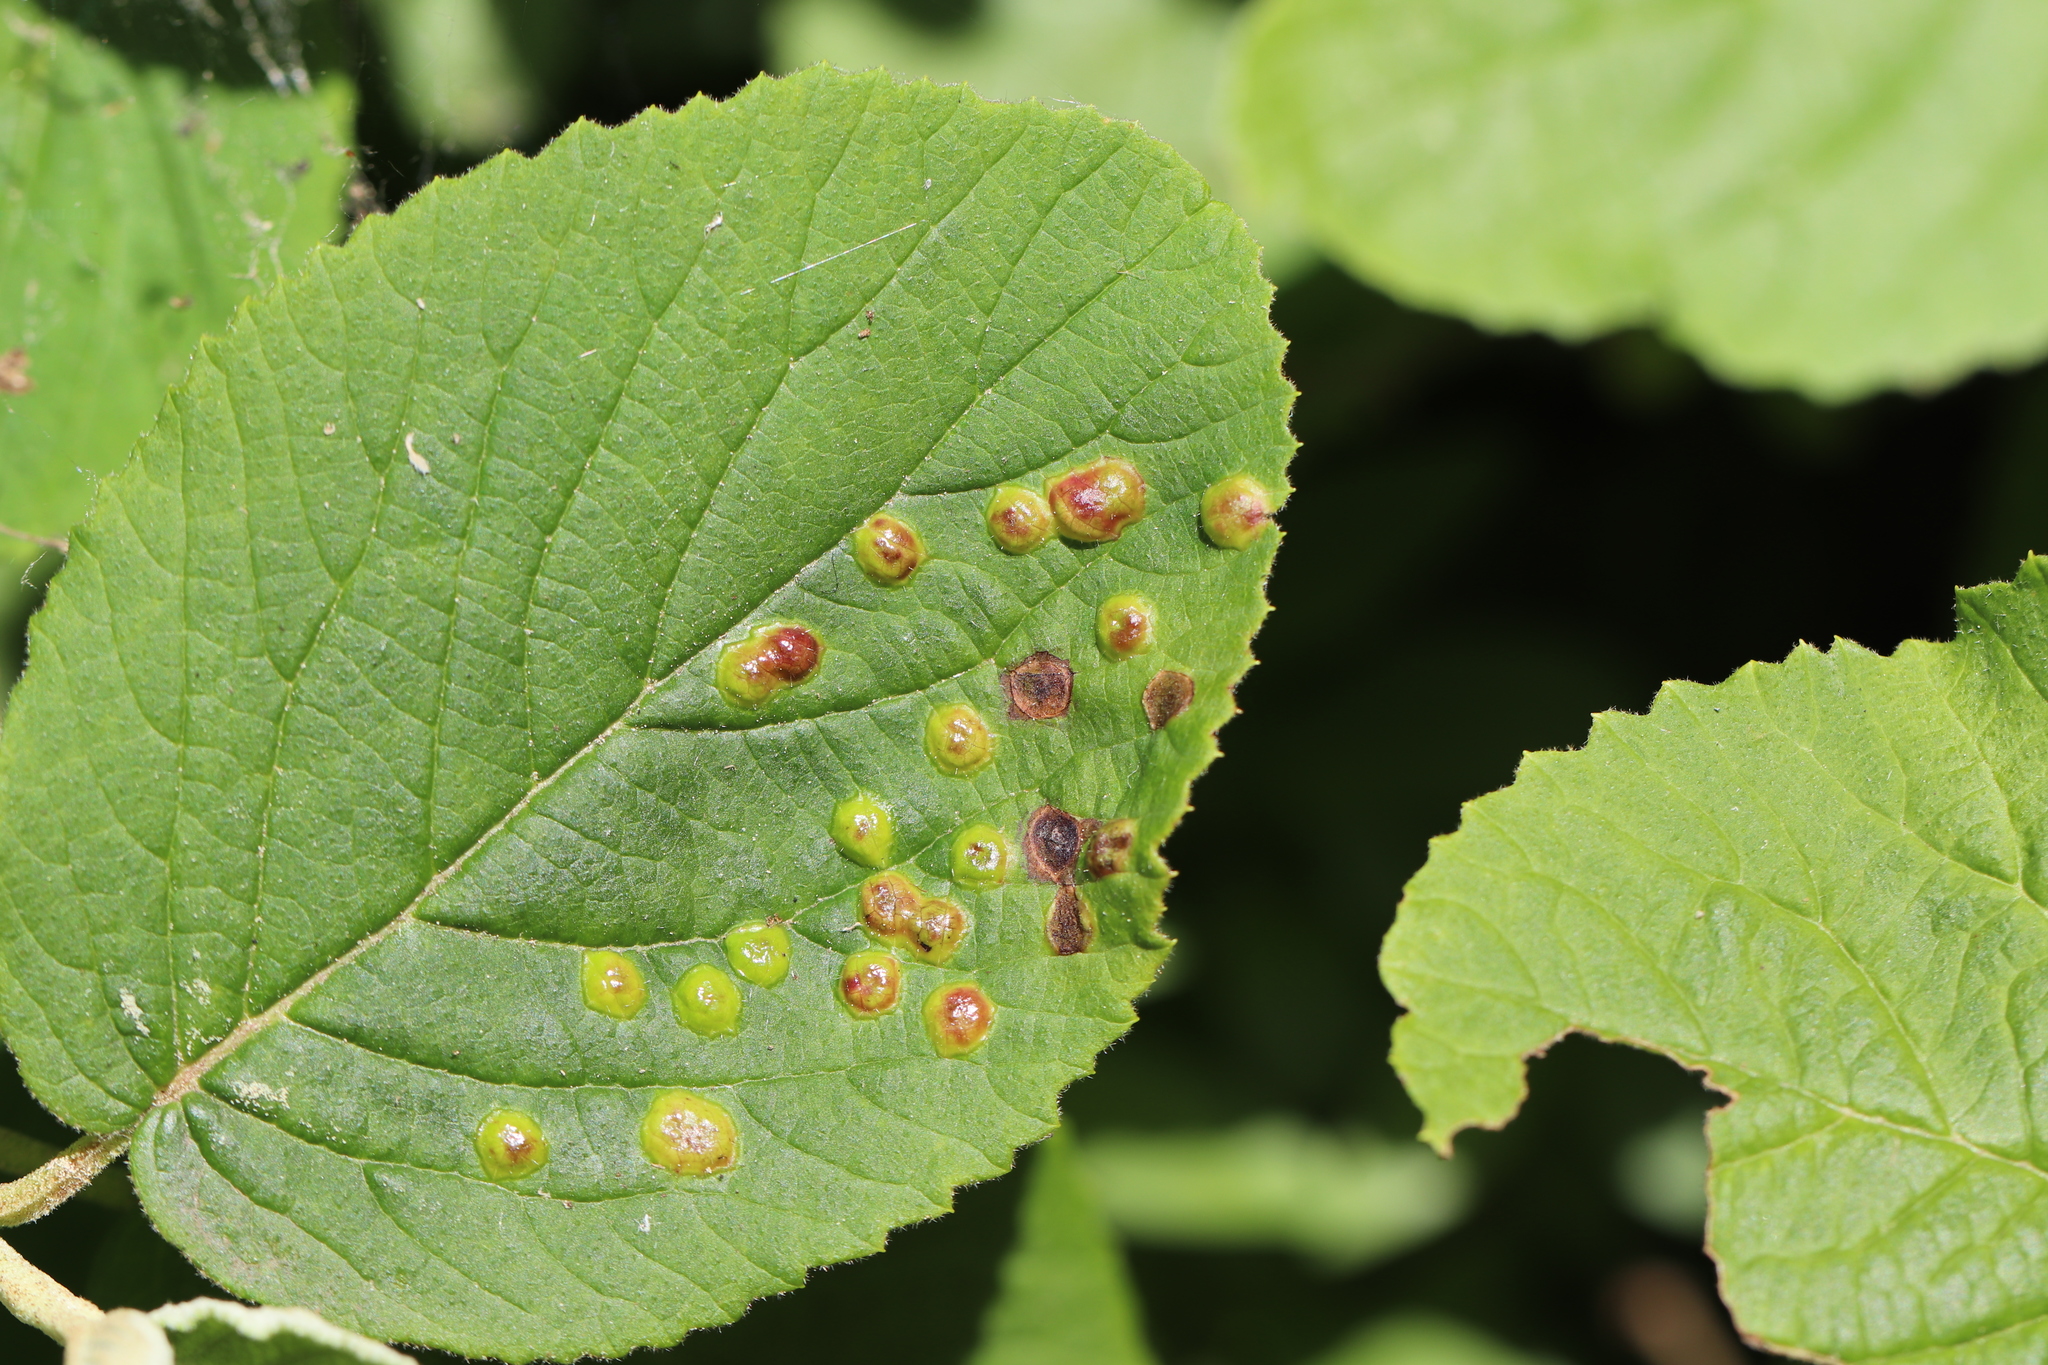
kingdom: Animalia
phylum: Arthropoda
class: Insecta
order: Diptera
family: Cecidomyiidae
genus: Sackenomyia
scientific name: Sackenomyia reaumurii
